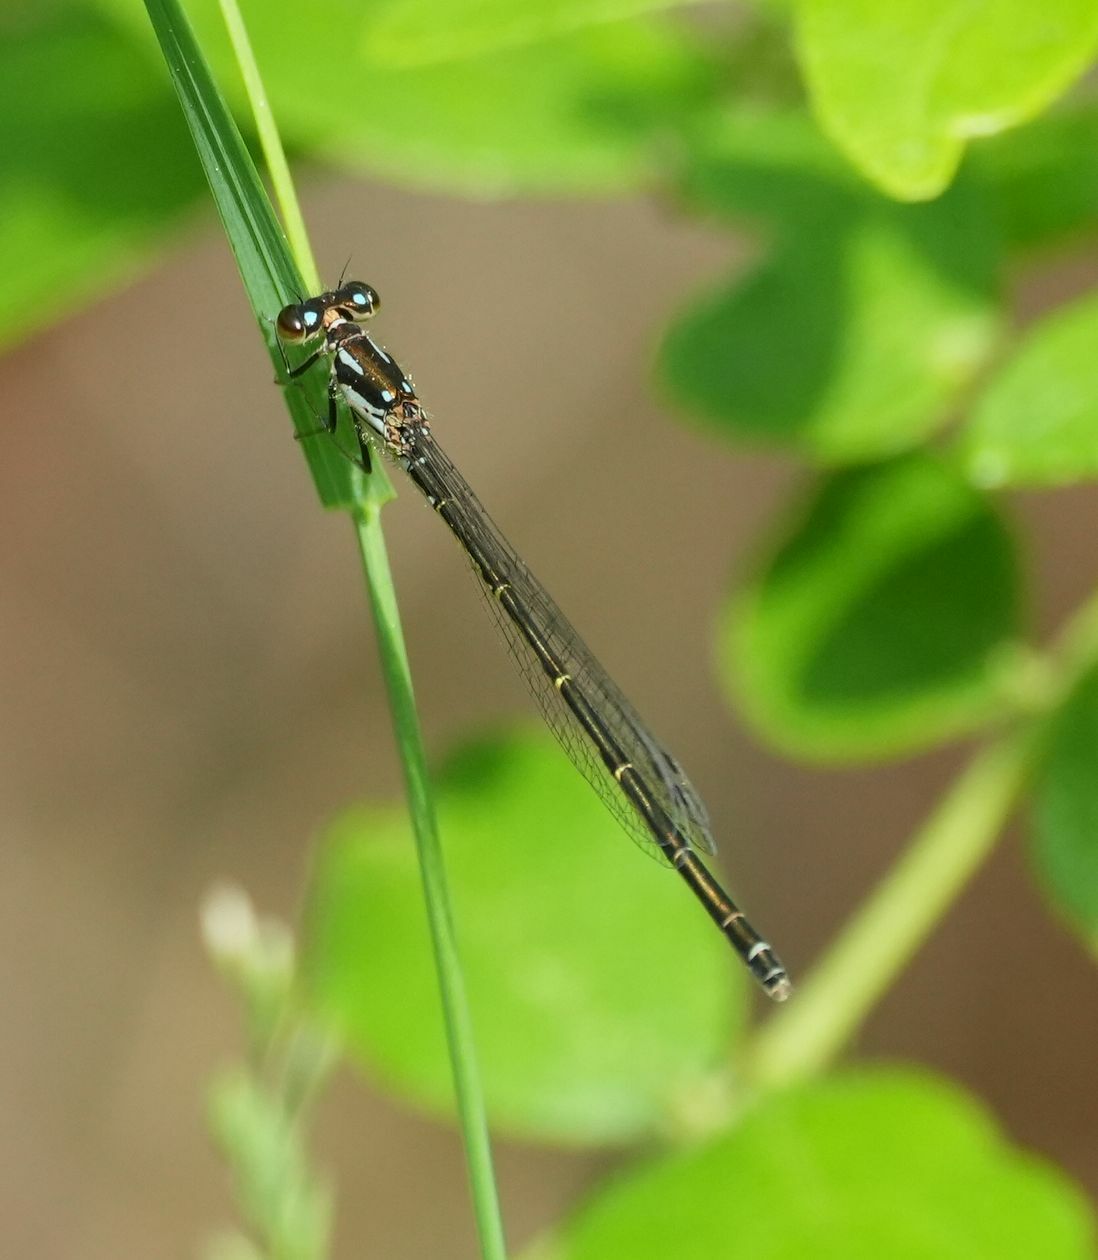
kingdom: Animalia
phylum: Arthropoda
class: Insecta
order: Odonata
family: Coenagrionidae
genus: Ischnura
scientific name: Ischnura posita
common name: Fragile forktail
